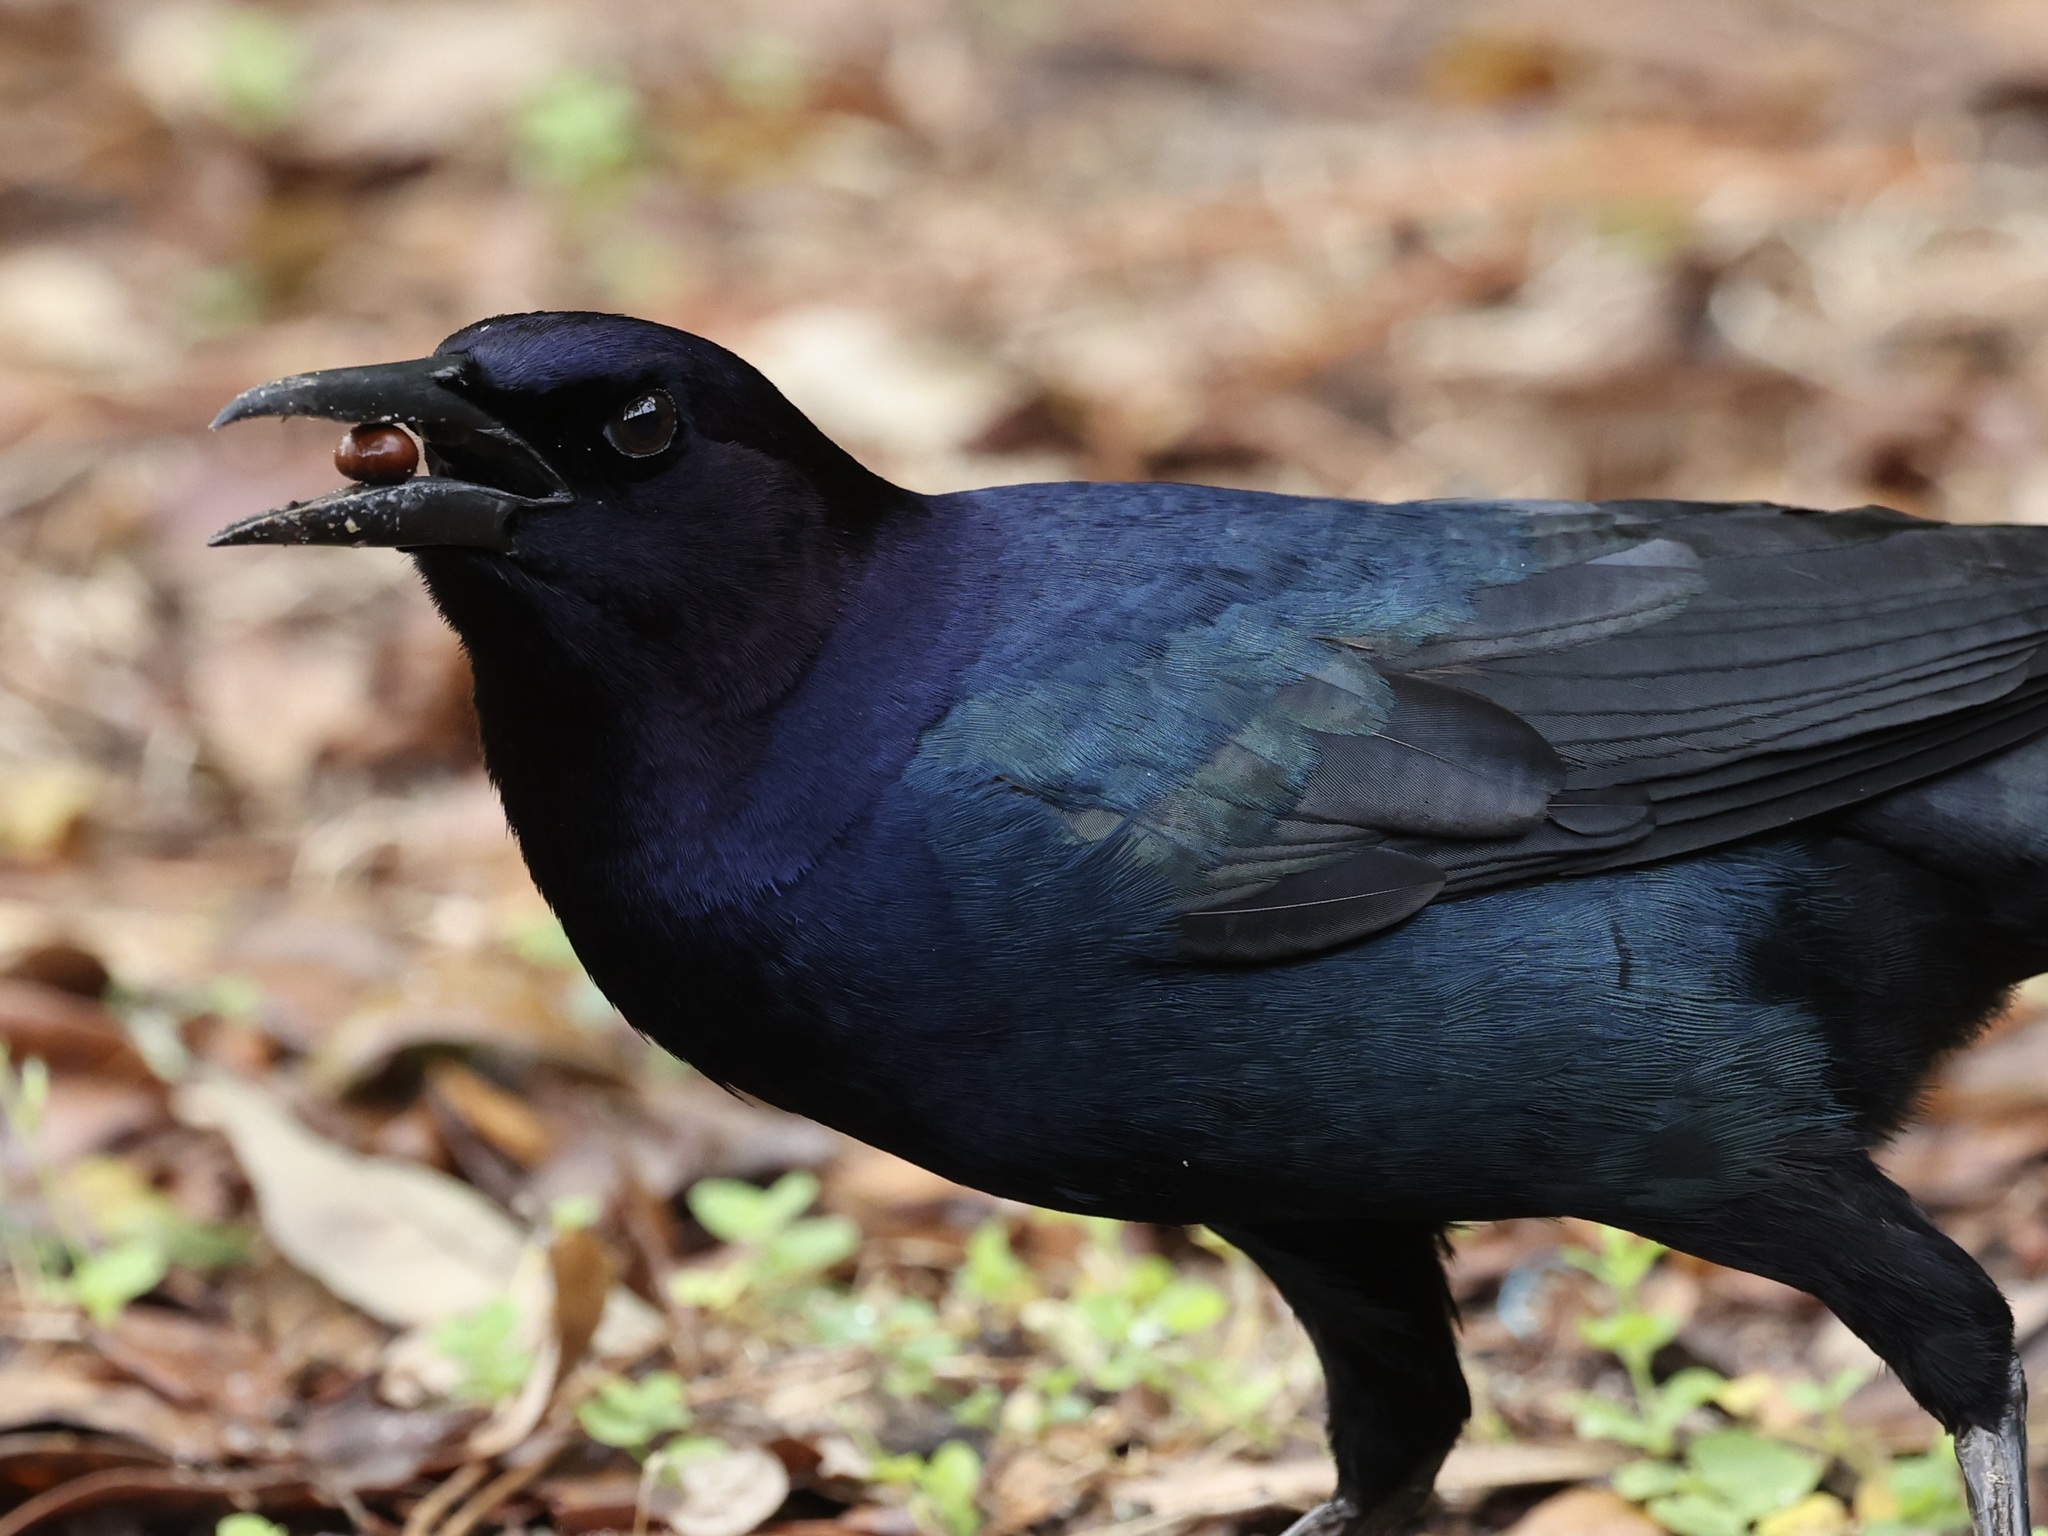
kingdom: Animalia
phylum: Chordata
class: Aves
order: Passeriformes
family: Icteridae
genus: Quiscalus
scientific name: Quiscalus major
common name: Boat-tailed grackle
